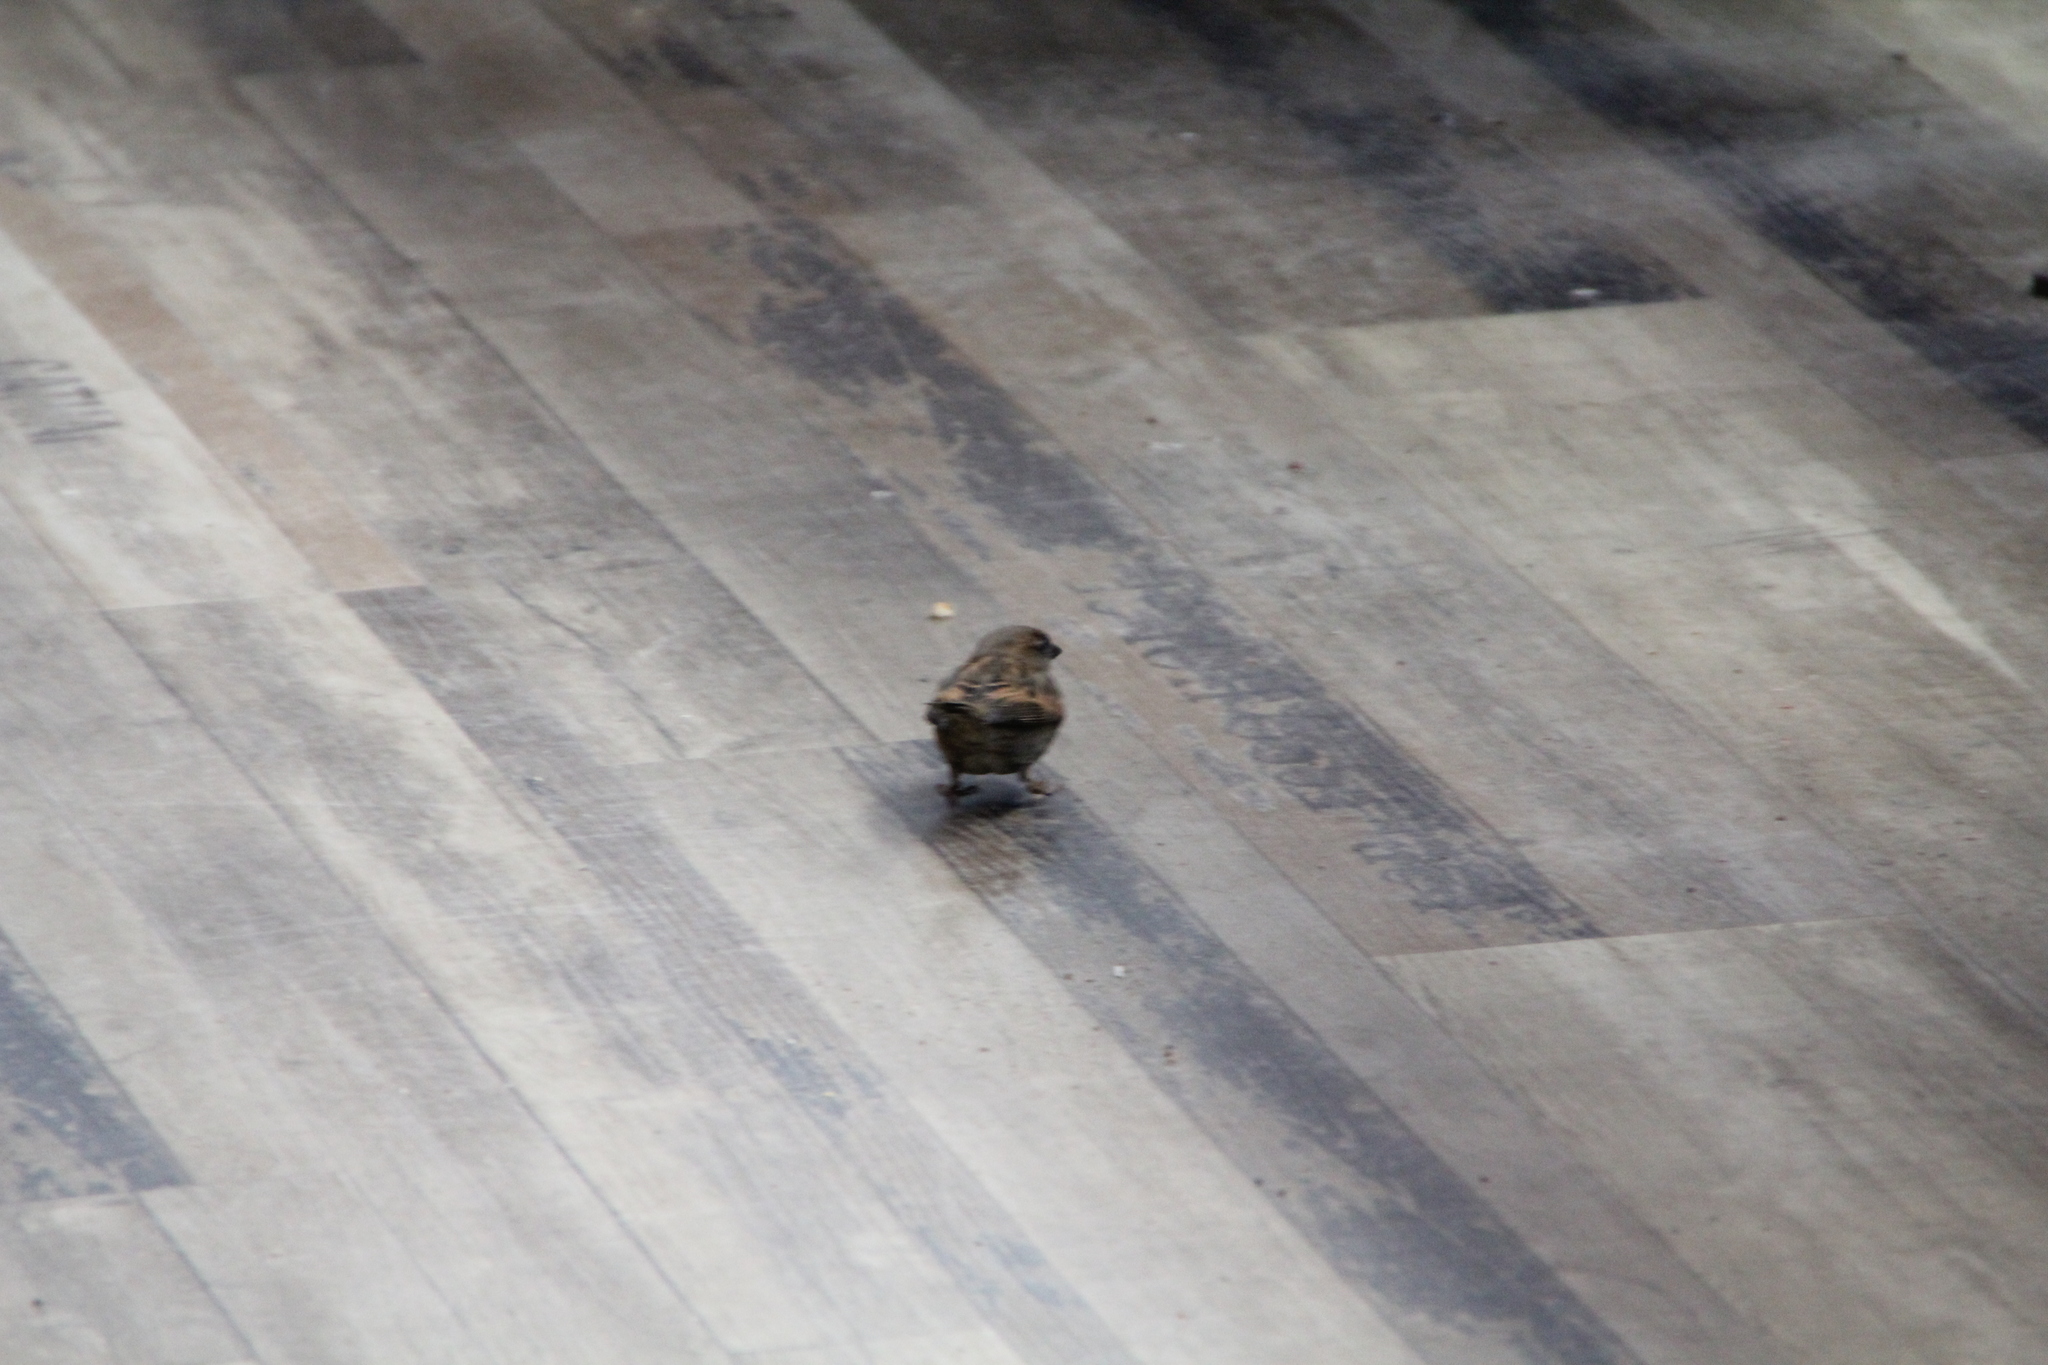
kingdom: Animalia
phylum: Chordata
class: Aves
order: Passeriformes
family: Passeridae
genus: Passer
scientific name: Passer domesticus
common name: House sparrow
